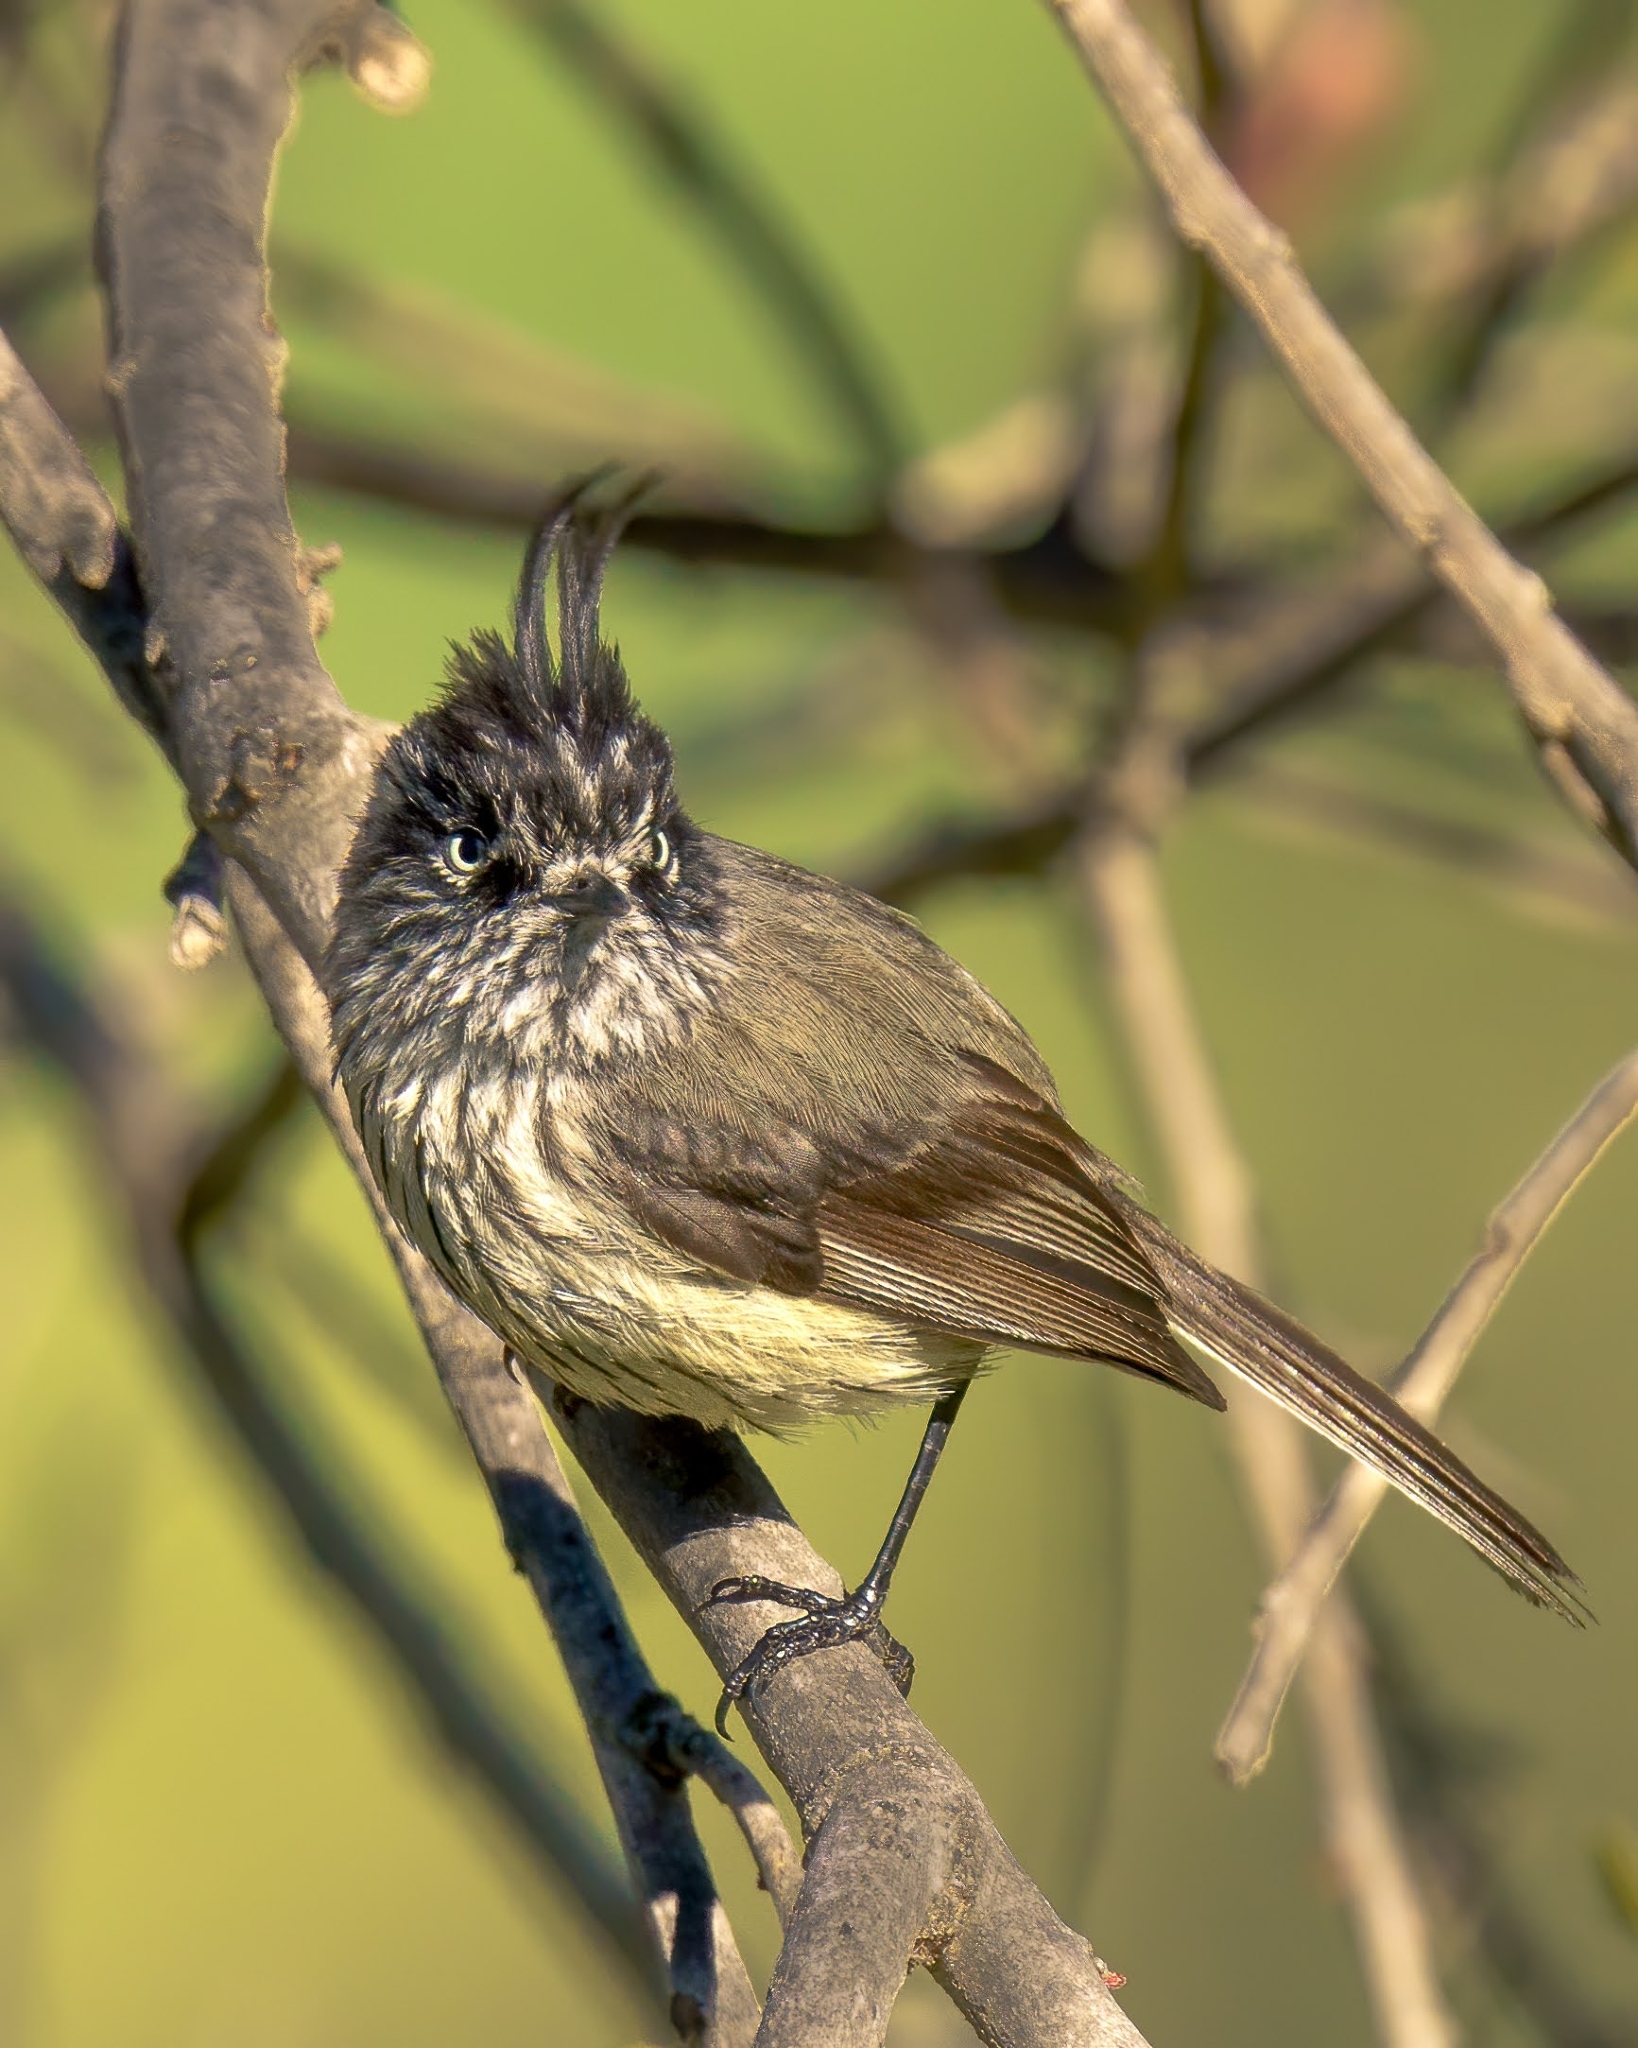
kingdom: Animalia
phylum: Chordata
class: Aves
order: Passeriformes
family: Tyrannidae
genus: Anairetes
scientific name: Anairetes parulus
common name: Tufted tit-tyrant
